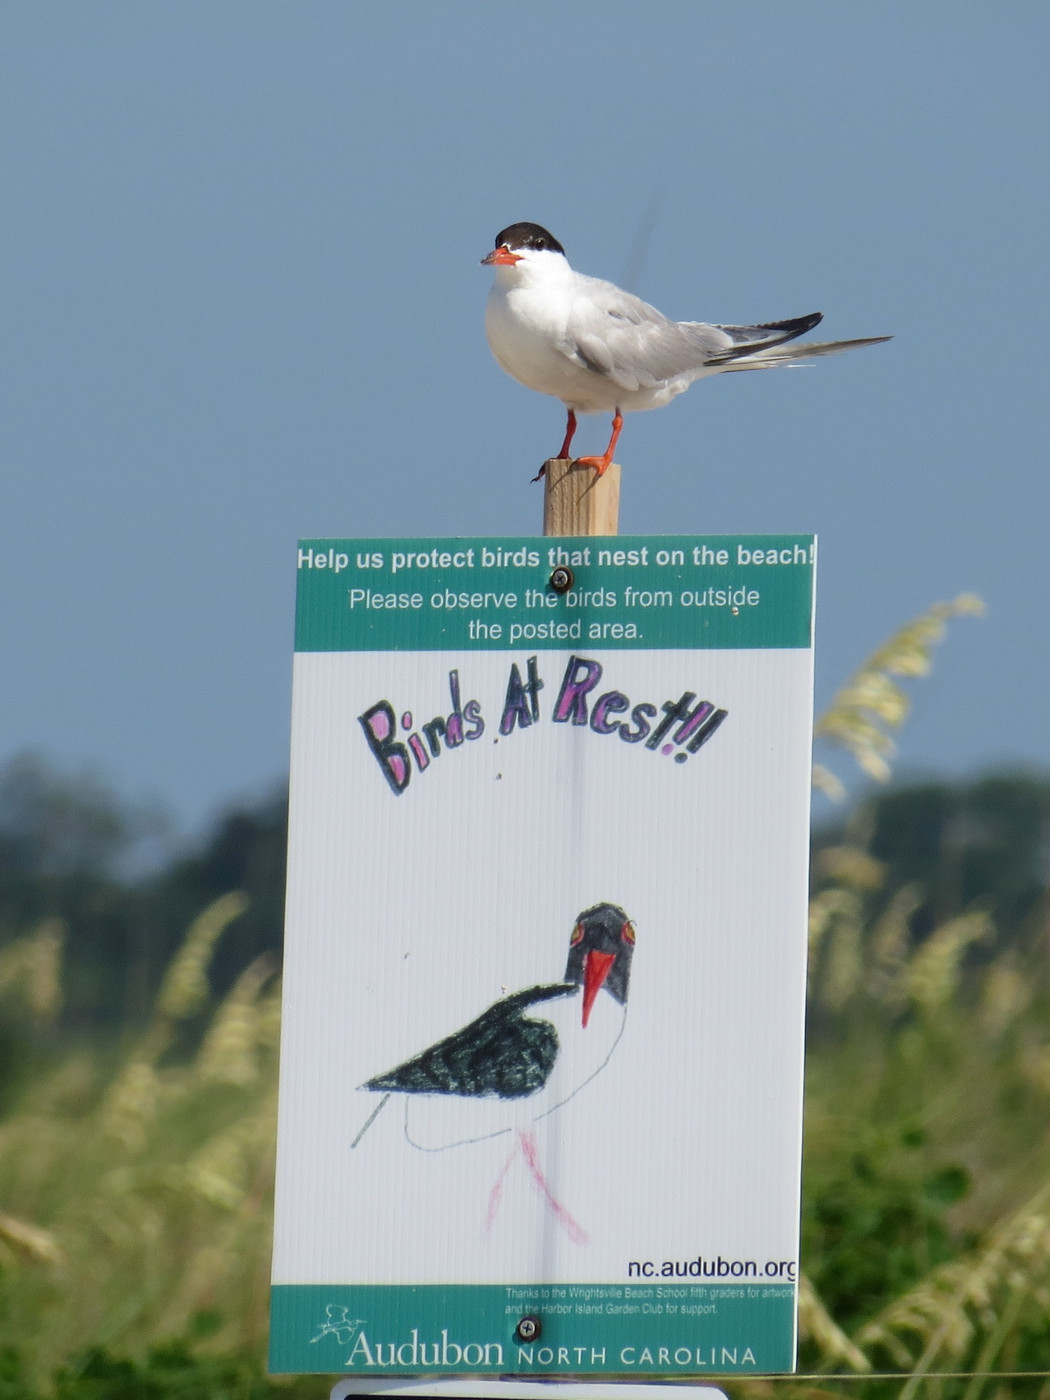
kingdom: Animalia
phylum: Chordata
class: Aves
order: Charadriiformes
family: Laridae
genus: Sterna
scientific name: Sterna hirundo
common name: Common tern
